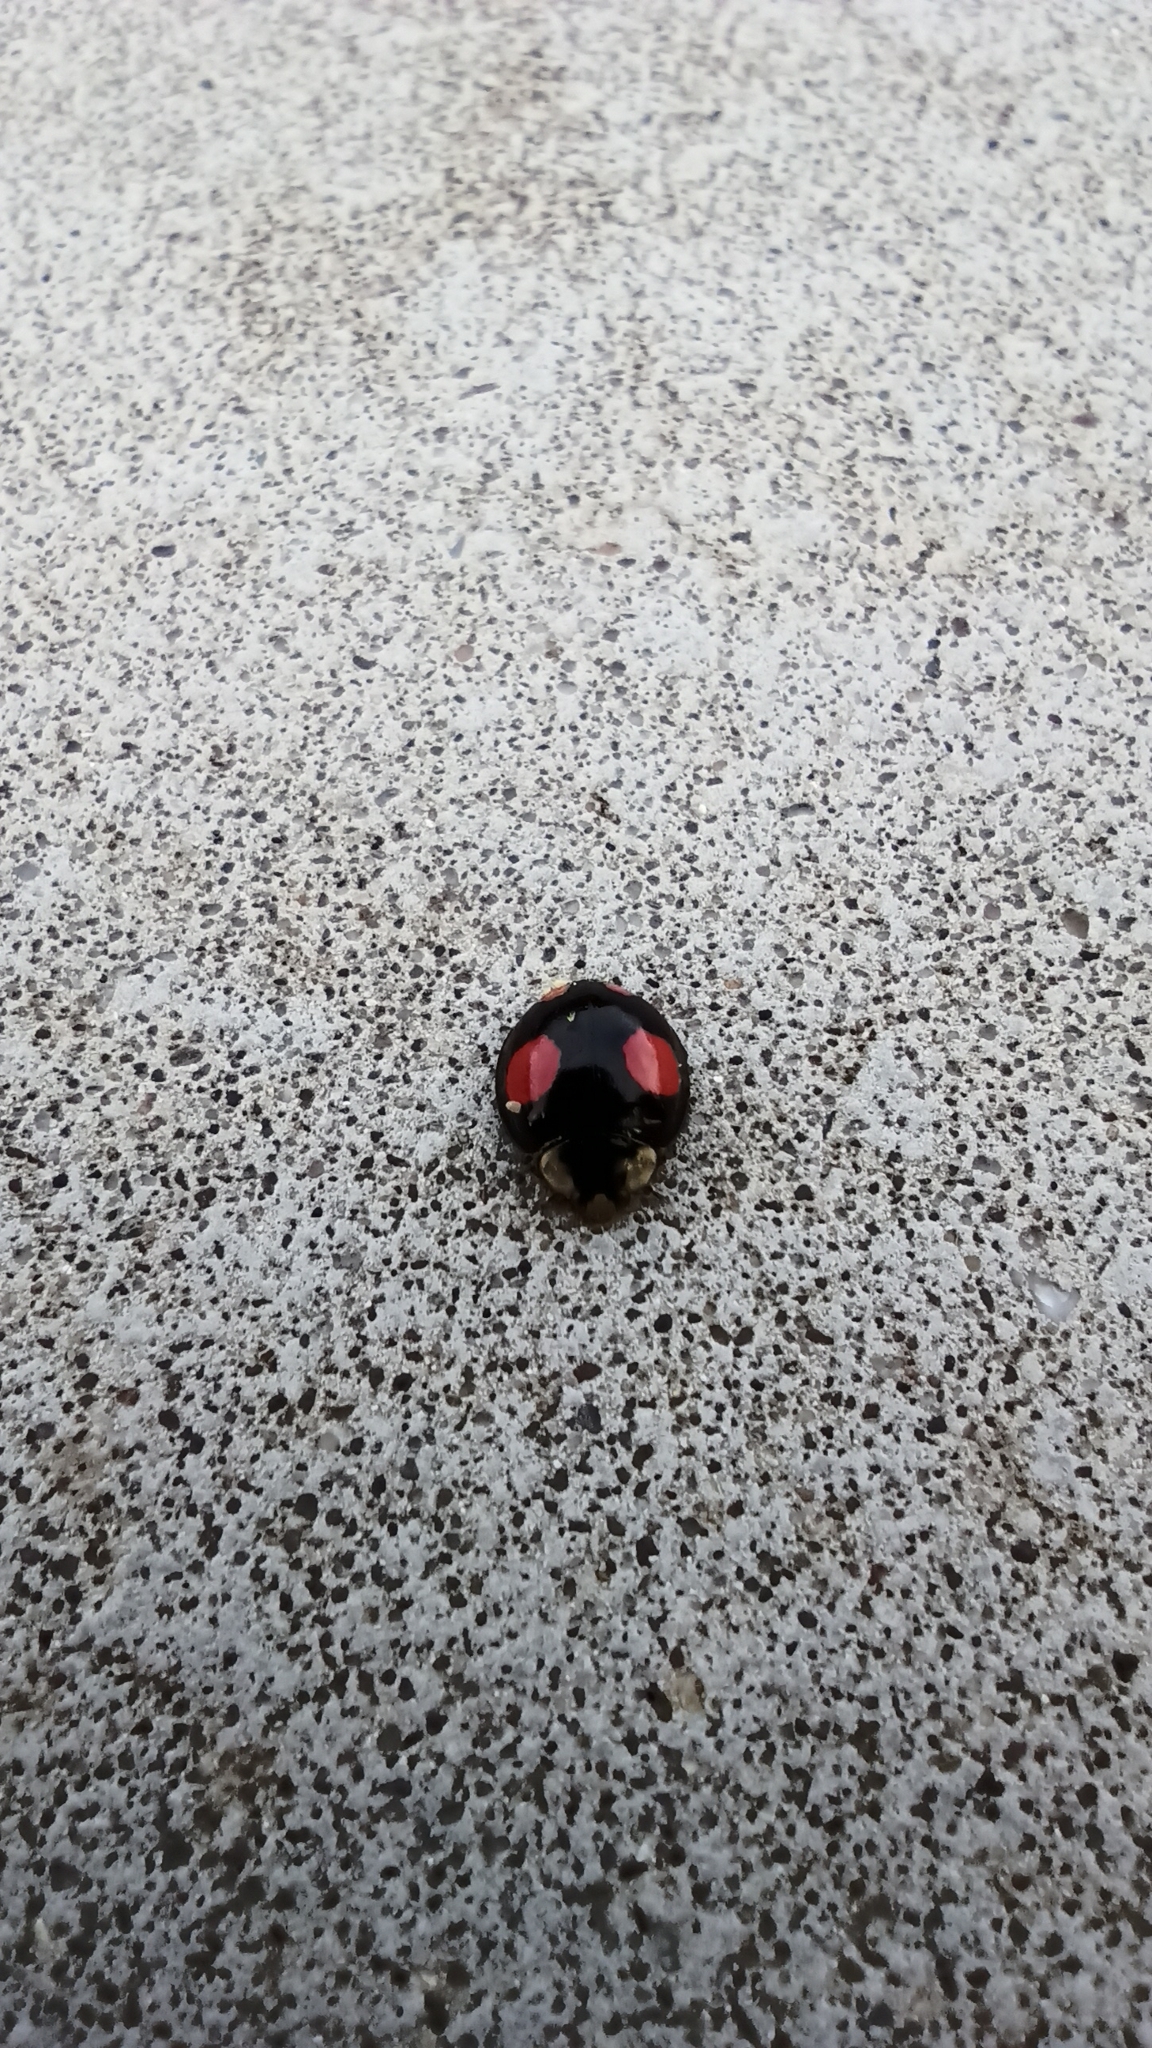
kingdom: Animalia
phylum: Arthropoda
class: Insecta
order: Coleoptera
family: Coccinellidae
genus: Harmonia
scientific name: Harmonia axyridis
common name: Harlequin ladybird
